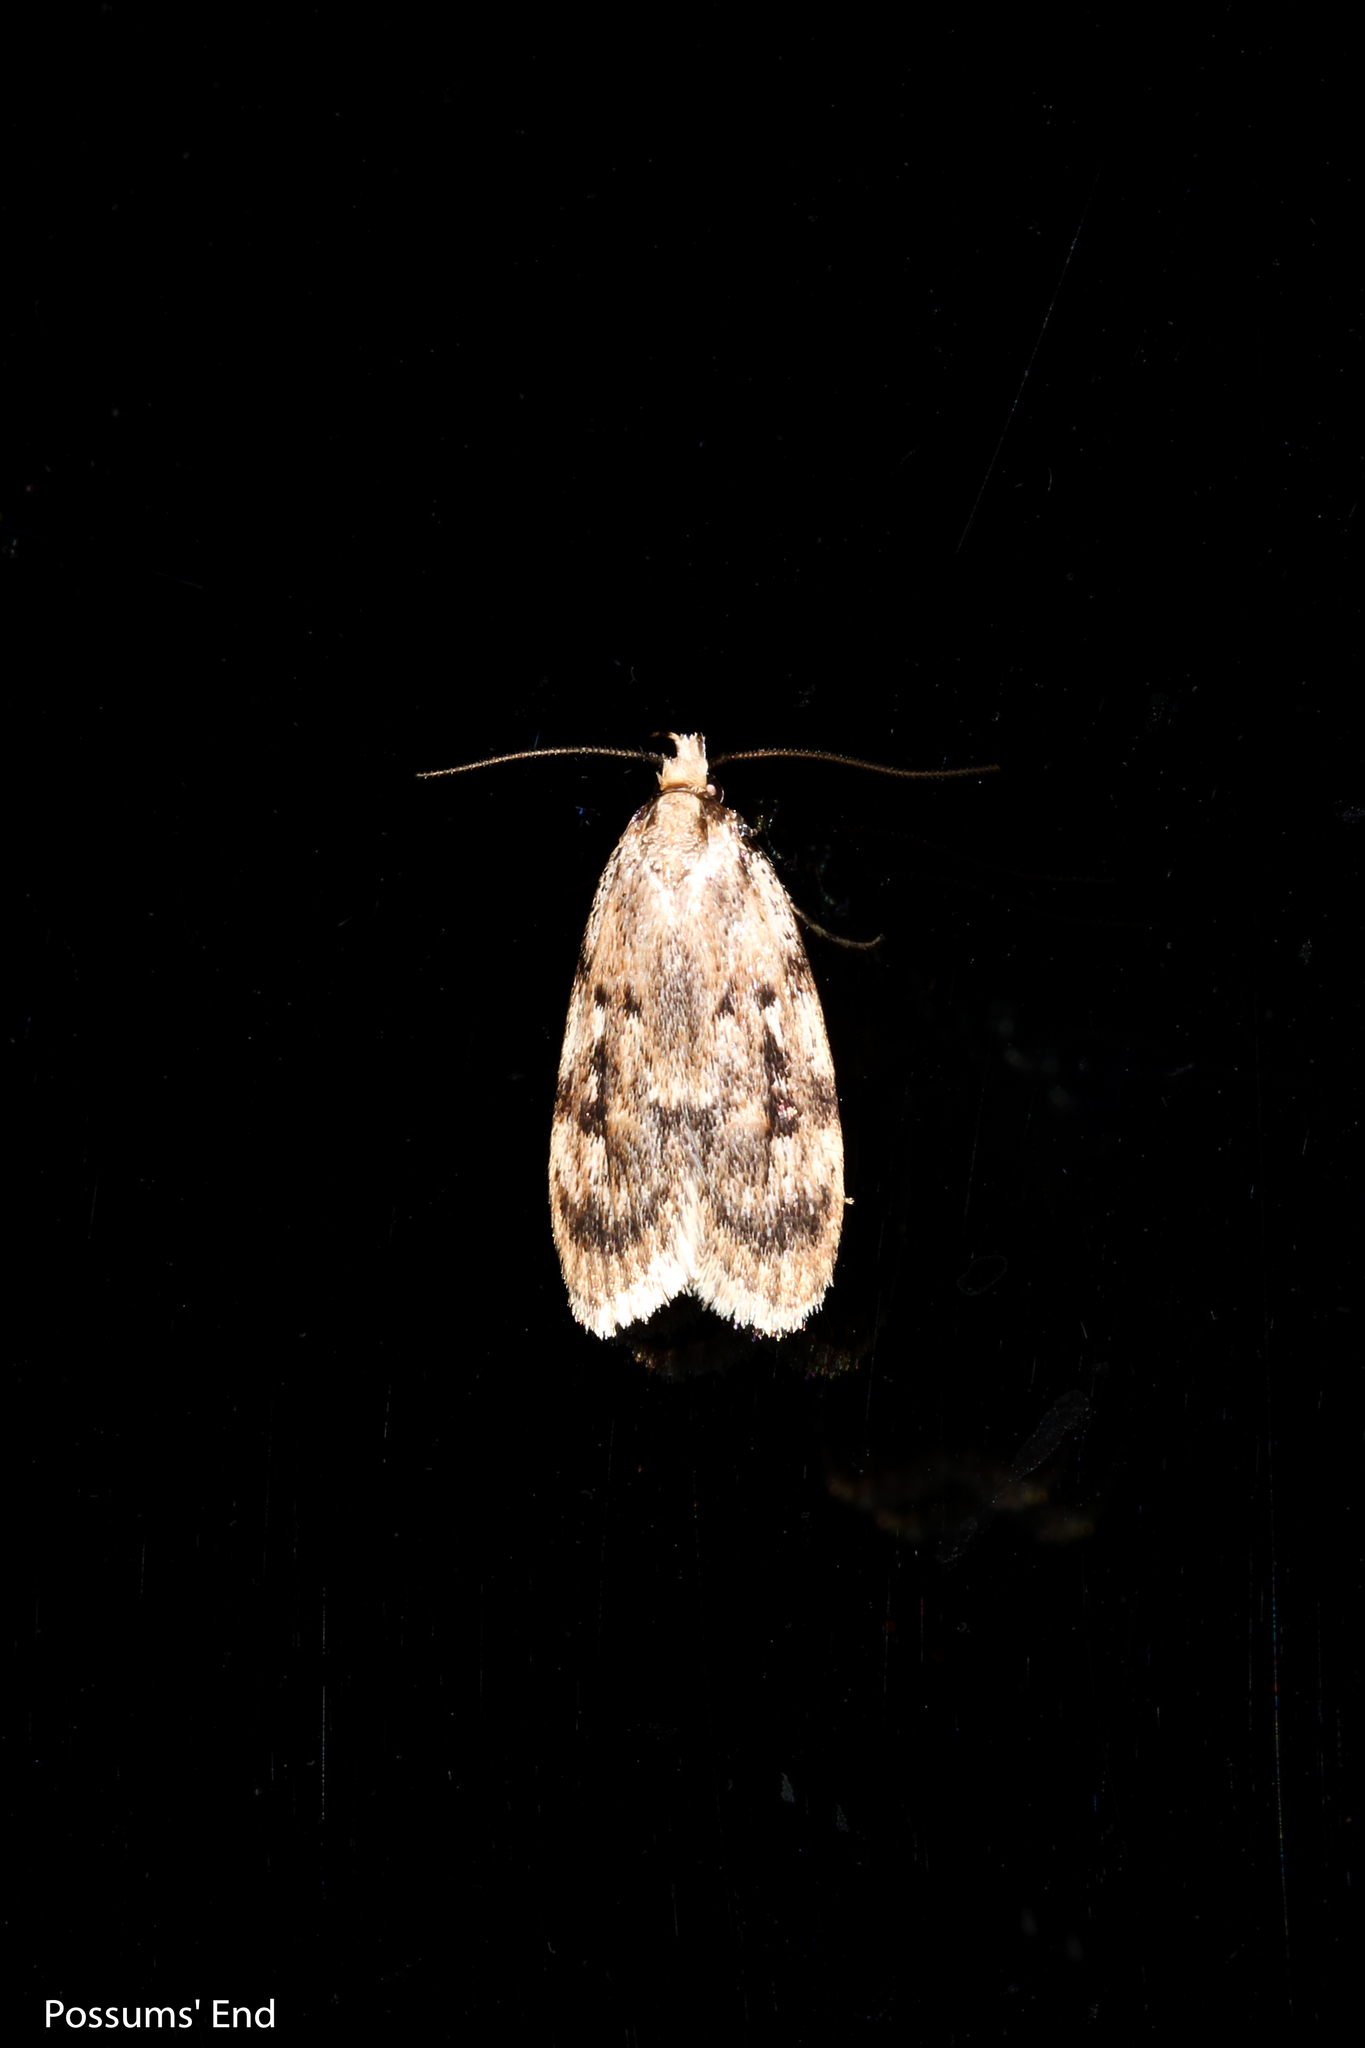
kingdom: Animalia
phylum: Arthropoda
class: Insecta
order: Lepidoptera
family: Oecophoridae
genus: Barea
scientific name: Barea exarcha
